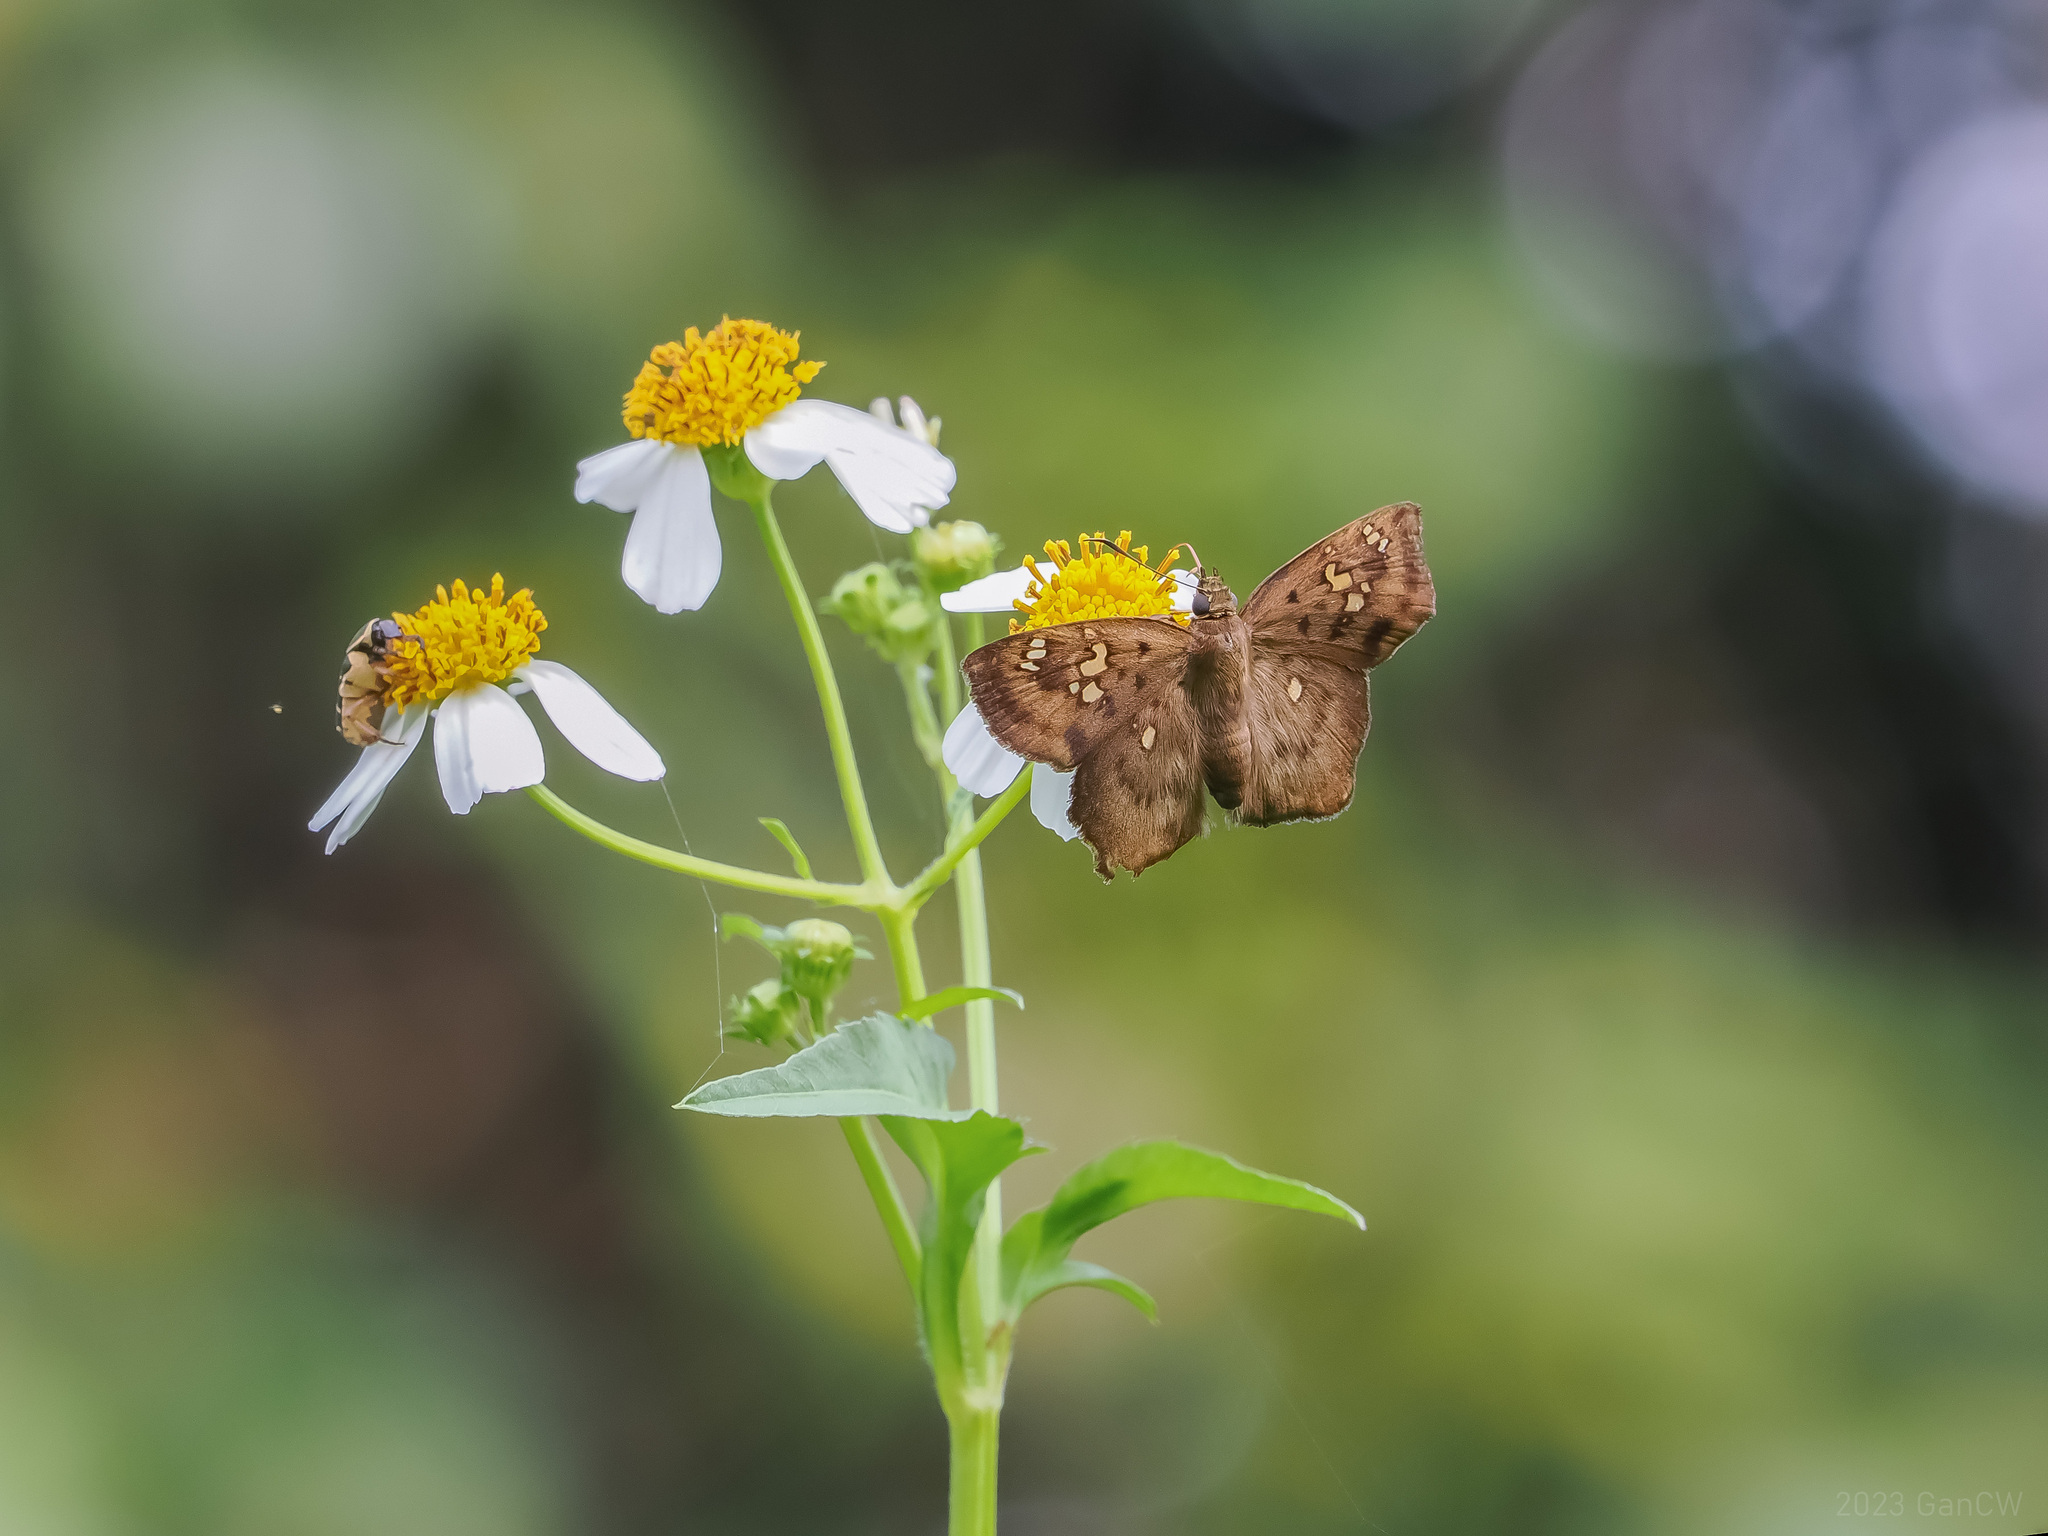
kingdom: Animalia
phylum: Arthropoda
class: Insecta
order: Lepidoptera
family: Hesperiidae
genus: Tapena
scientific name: Tapena thwaitesi
